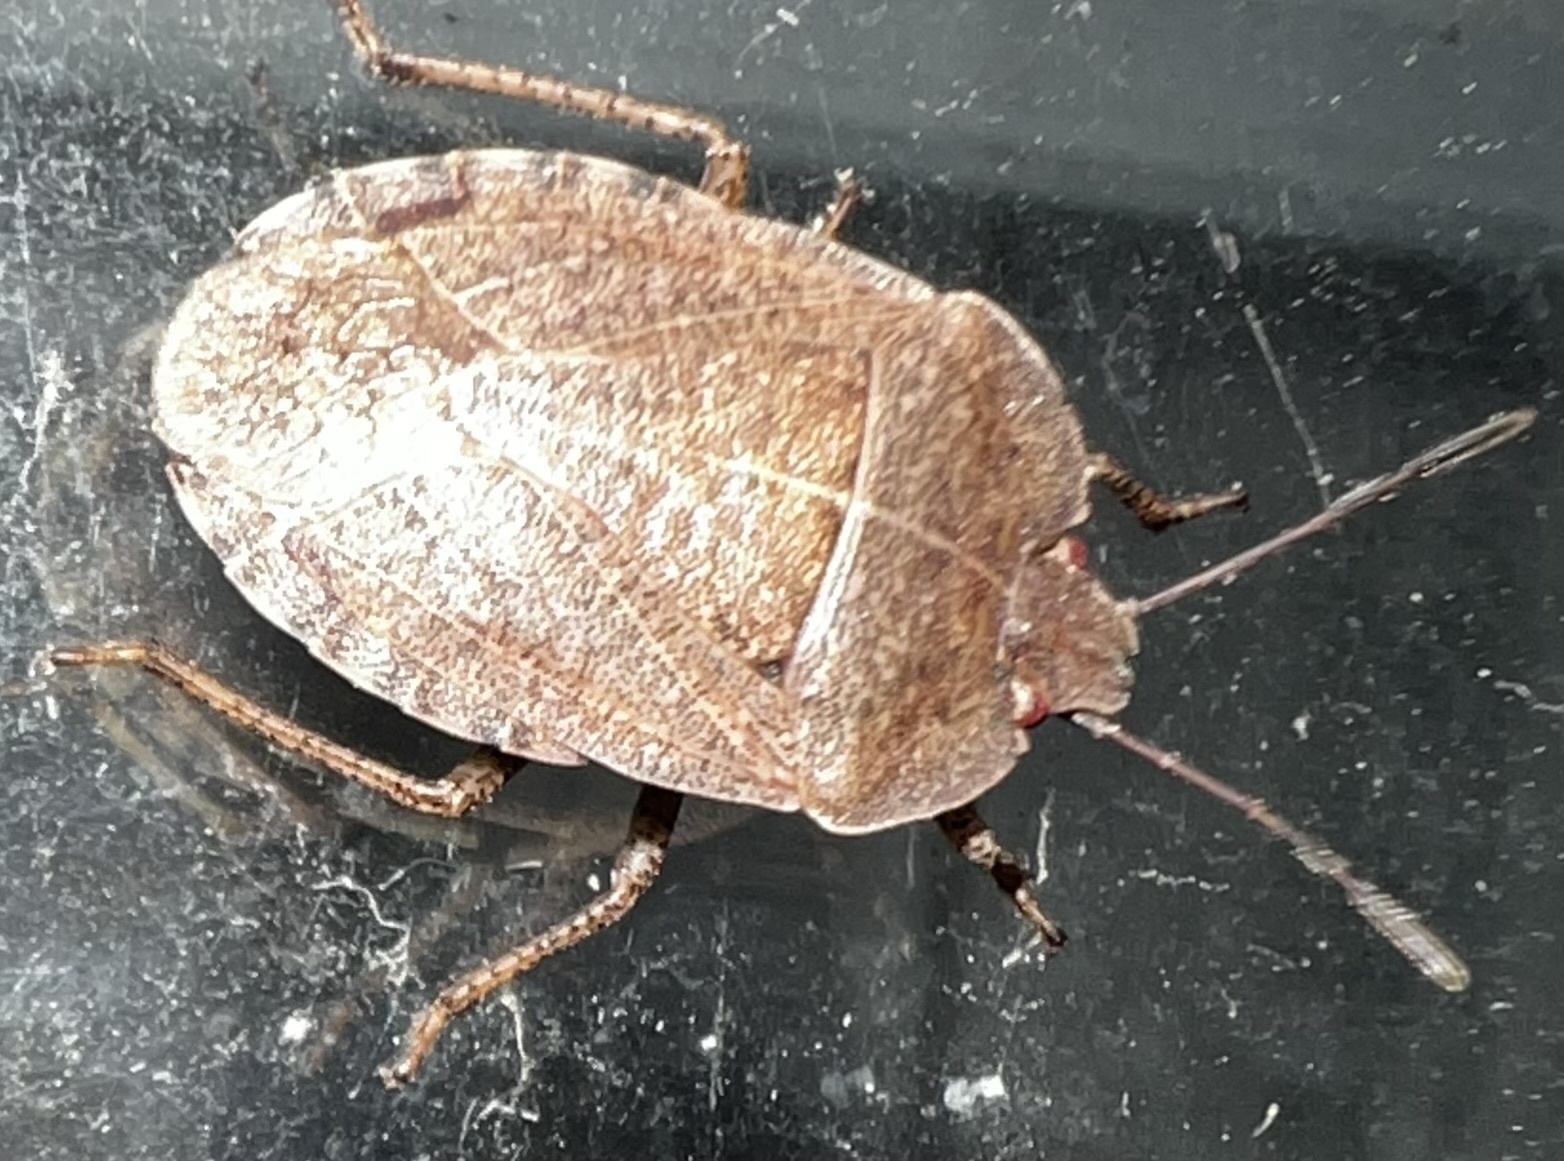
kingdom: Animalia
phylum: Arthropoda
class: Insecta
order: Hemiptera
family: Pentatomidae
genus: Menecles
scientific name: Menecles insertus
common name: Elf shoe stink bug
